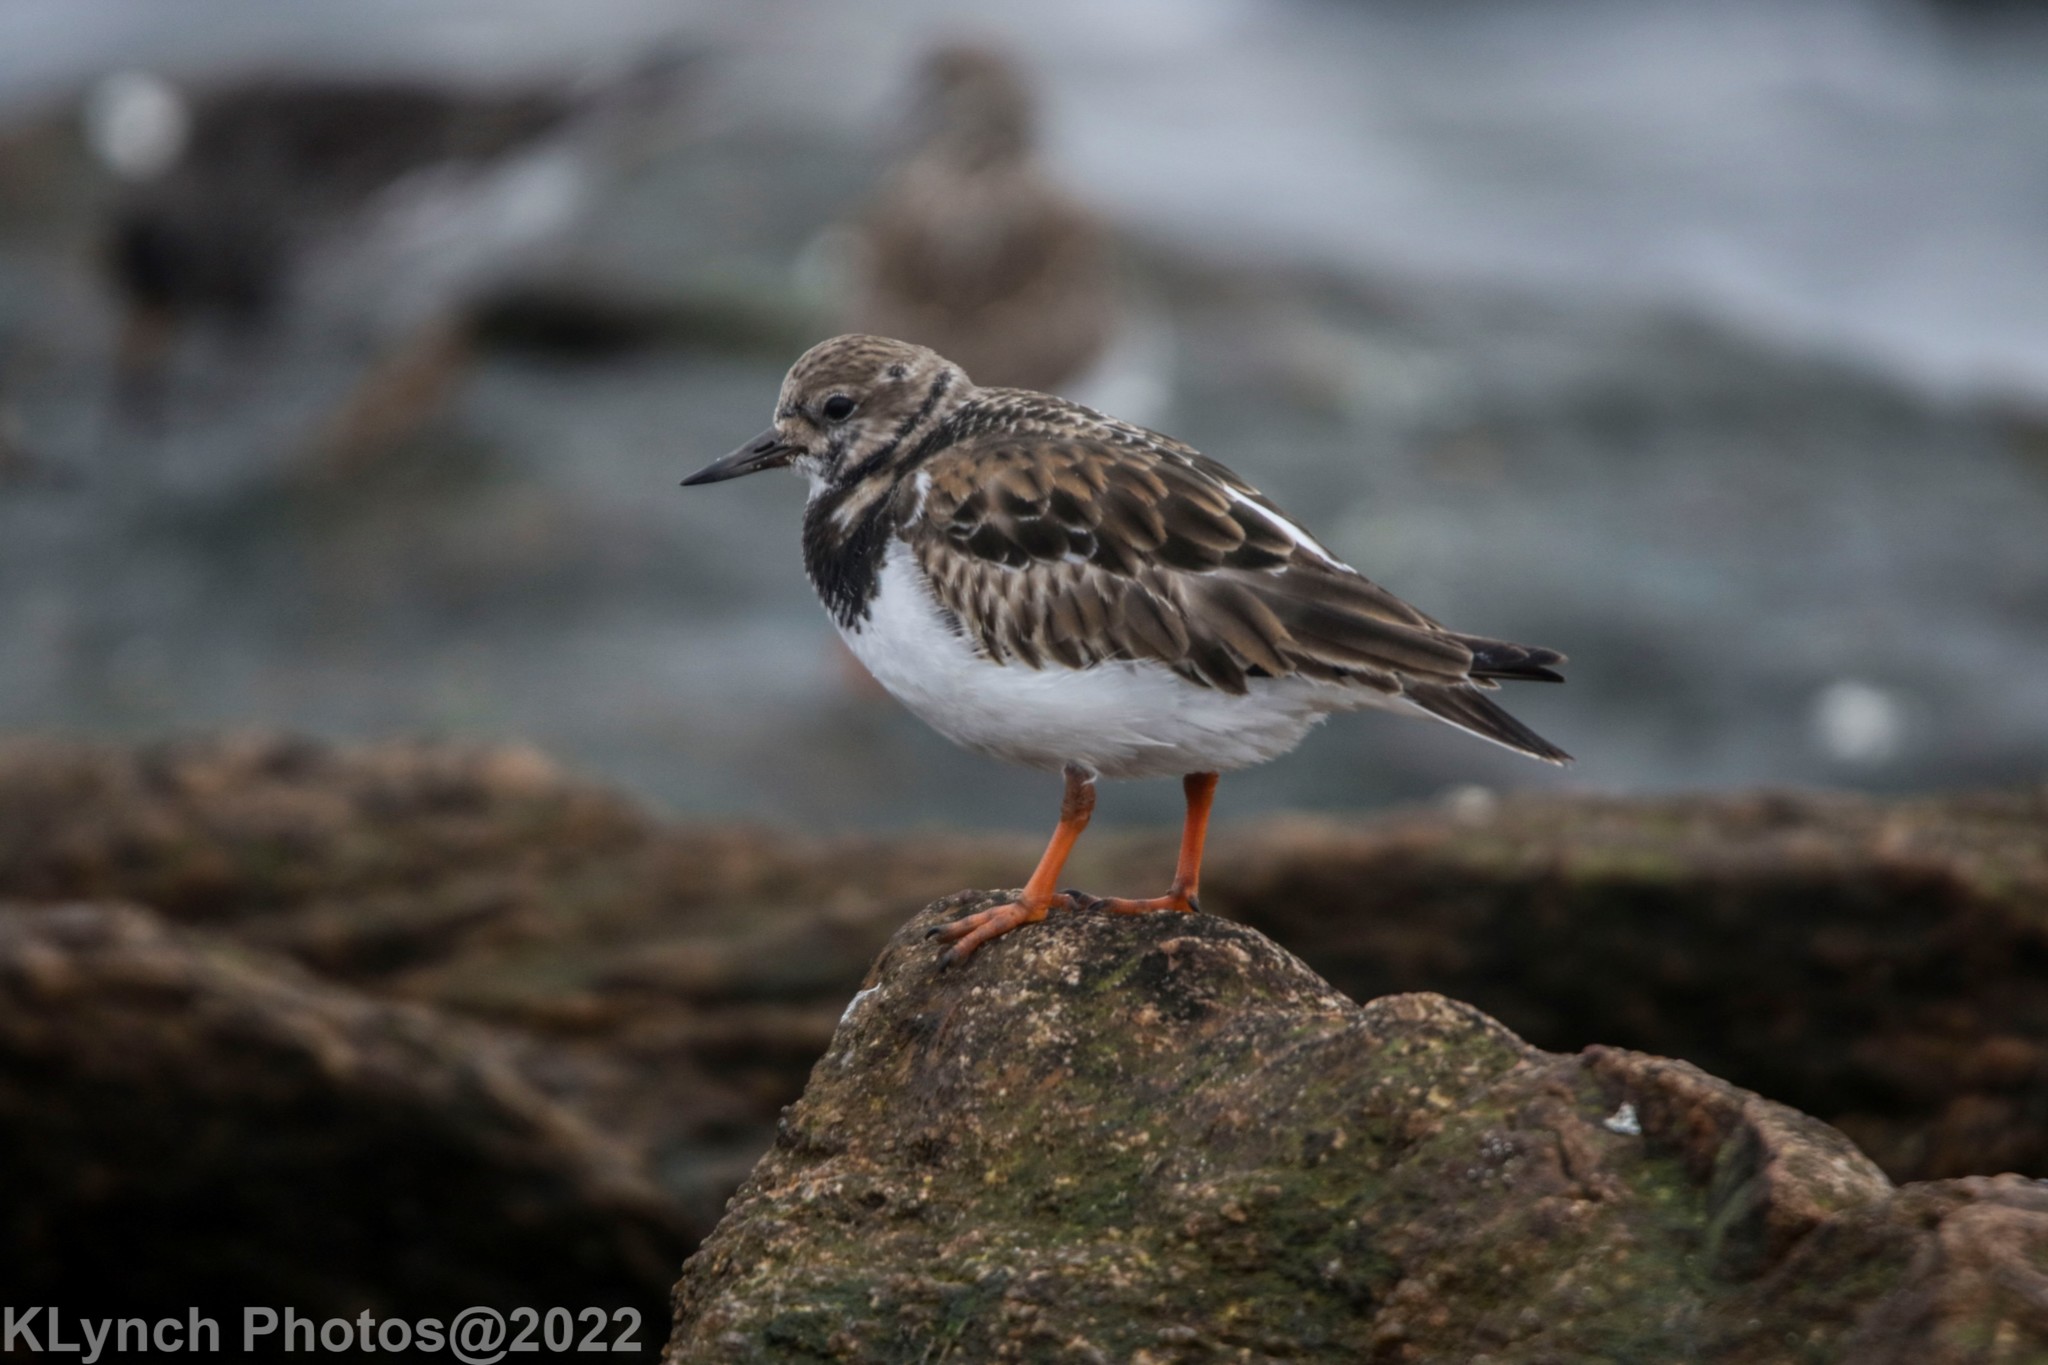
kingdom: Animalia
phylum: Chordata
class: Aves
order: Charadriiformes
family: Scolopacidae
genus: Arenaria
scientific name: Arenaria interpres
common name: Ruddy turnstone
